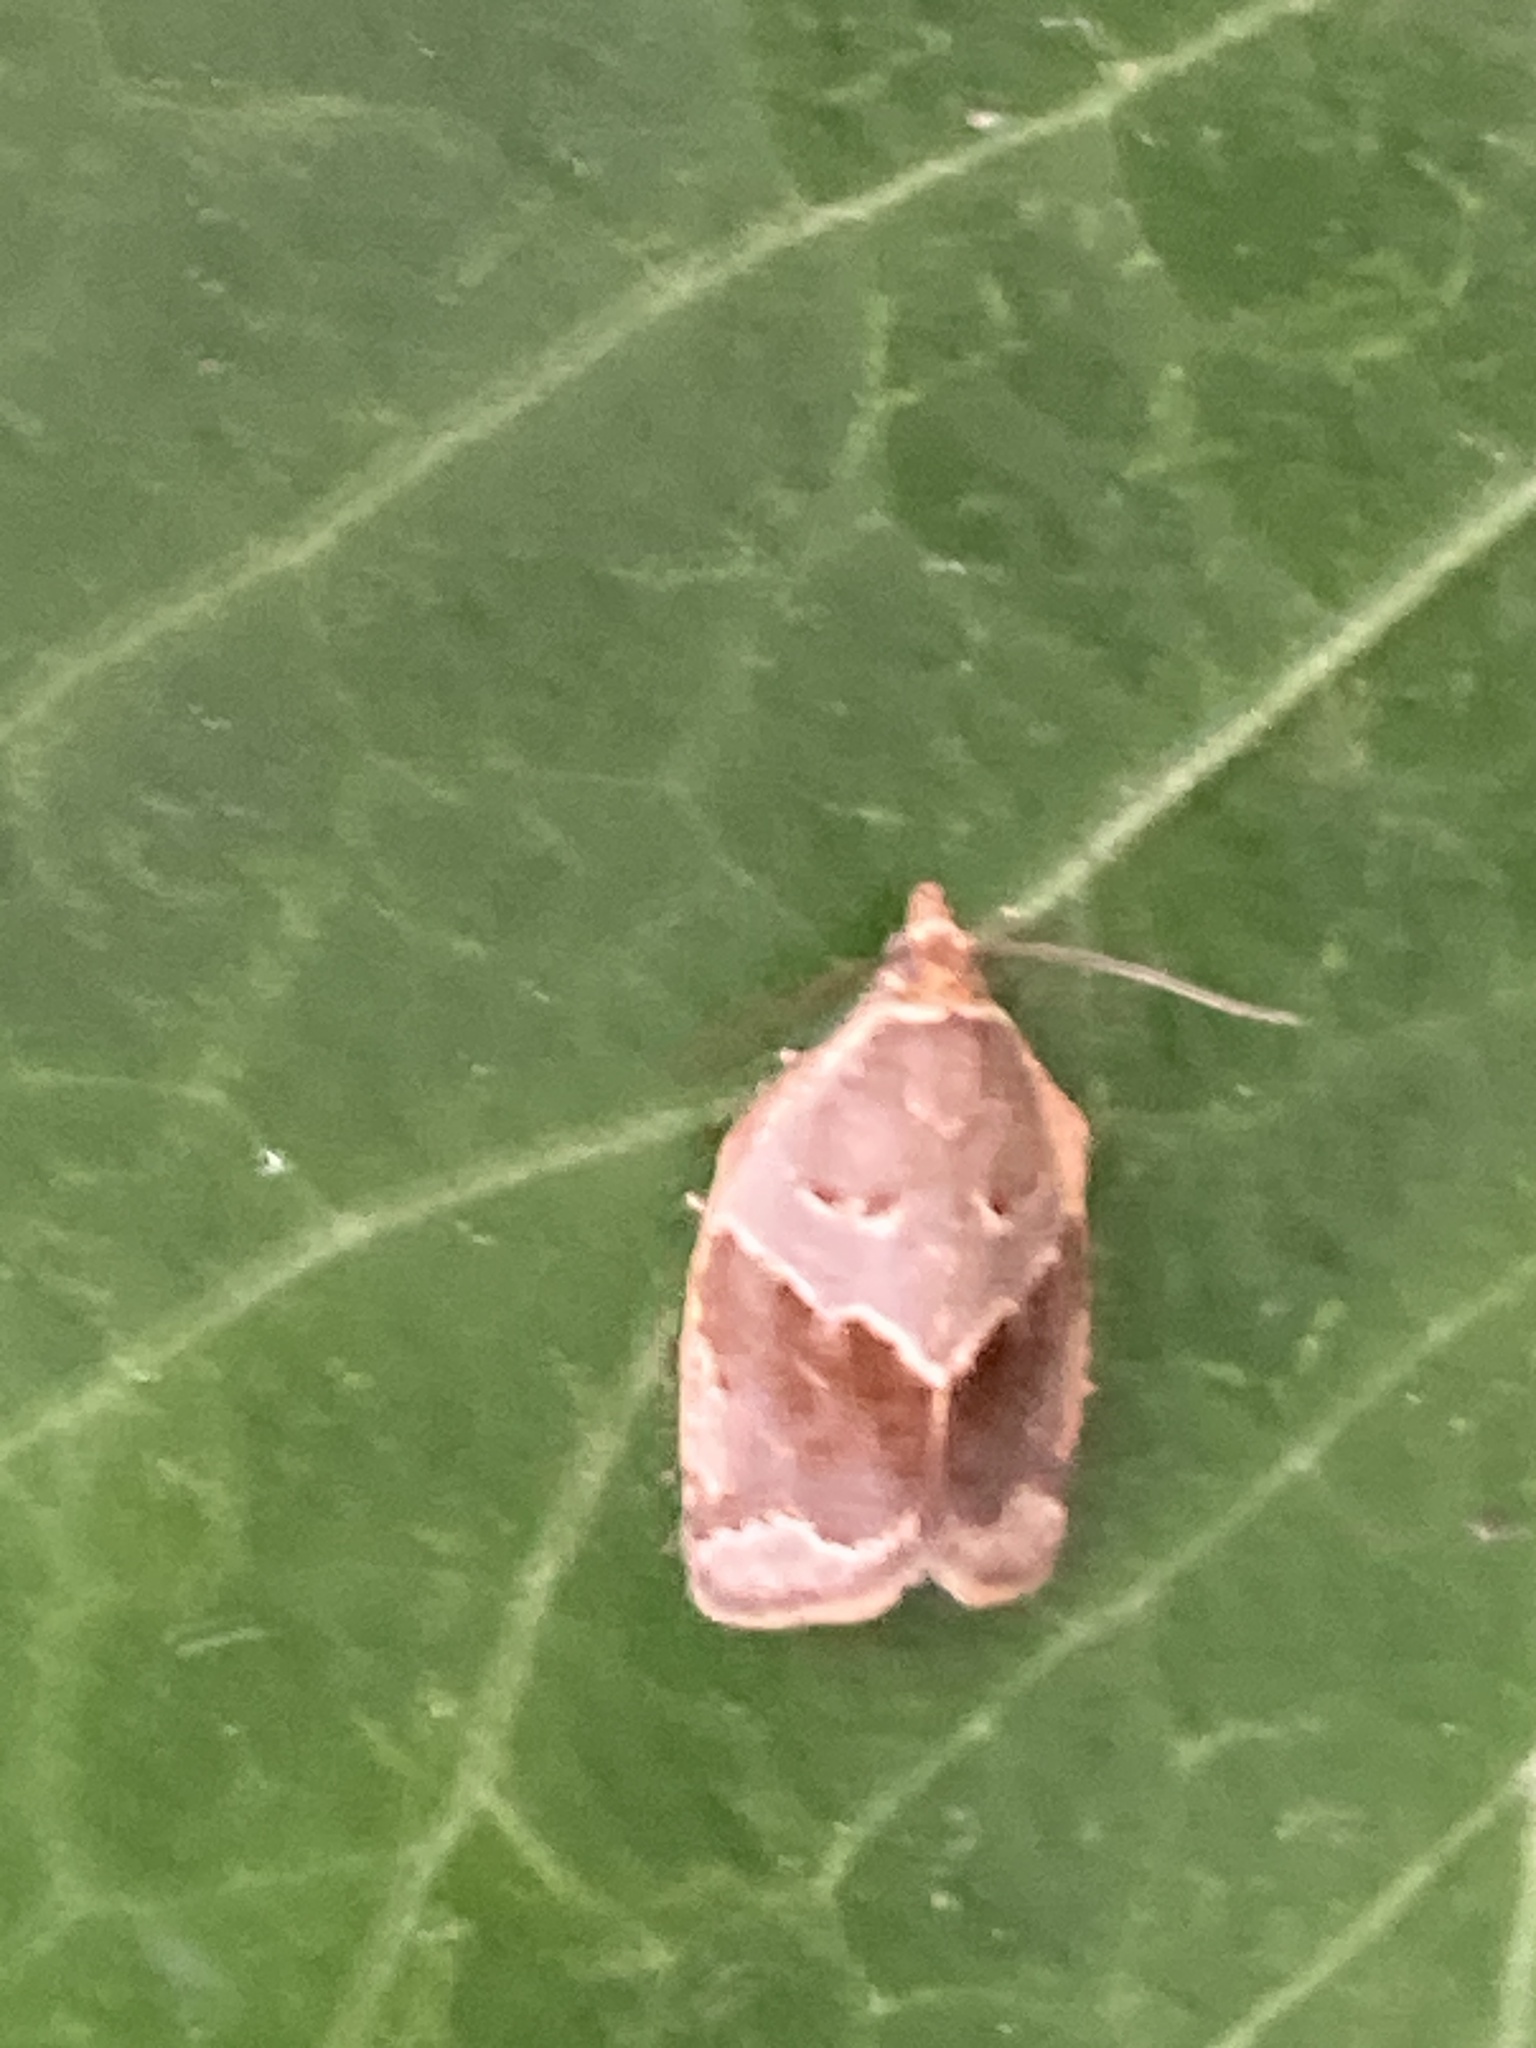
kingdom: Animalia
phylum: Arthropoda
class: Insecta
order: Lepidoptera
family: Tortricidae
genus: Clepsis
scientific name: Clepsis dumicolana
